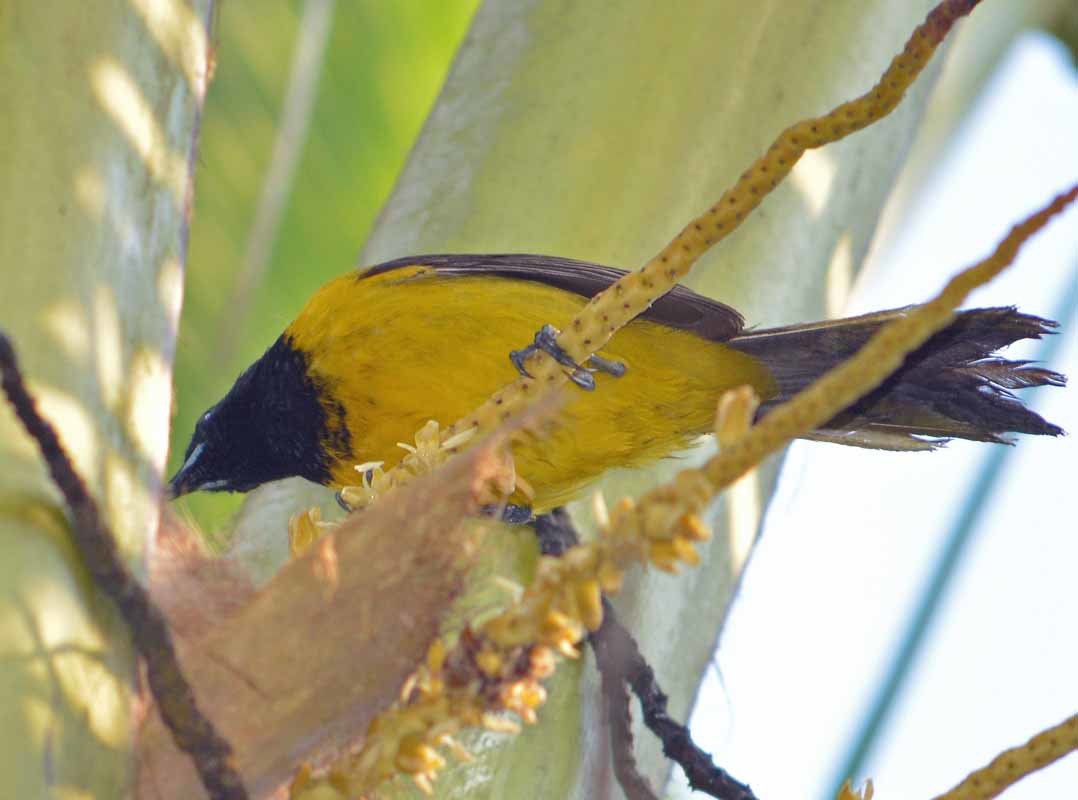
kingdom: Animalia
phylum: Chordata
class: Aves
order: Passeriformes
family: Icteridae
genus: Icterus
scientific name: Icterus prosthemelas
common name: Black-cowled oriole
